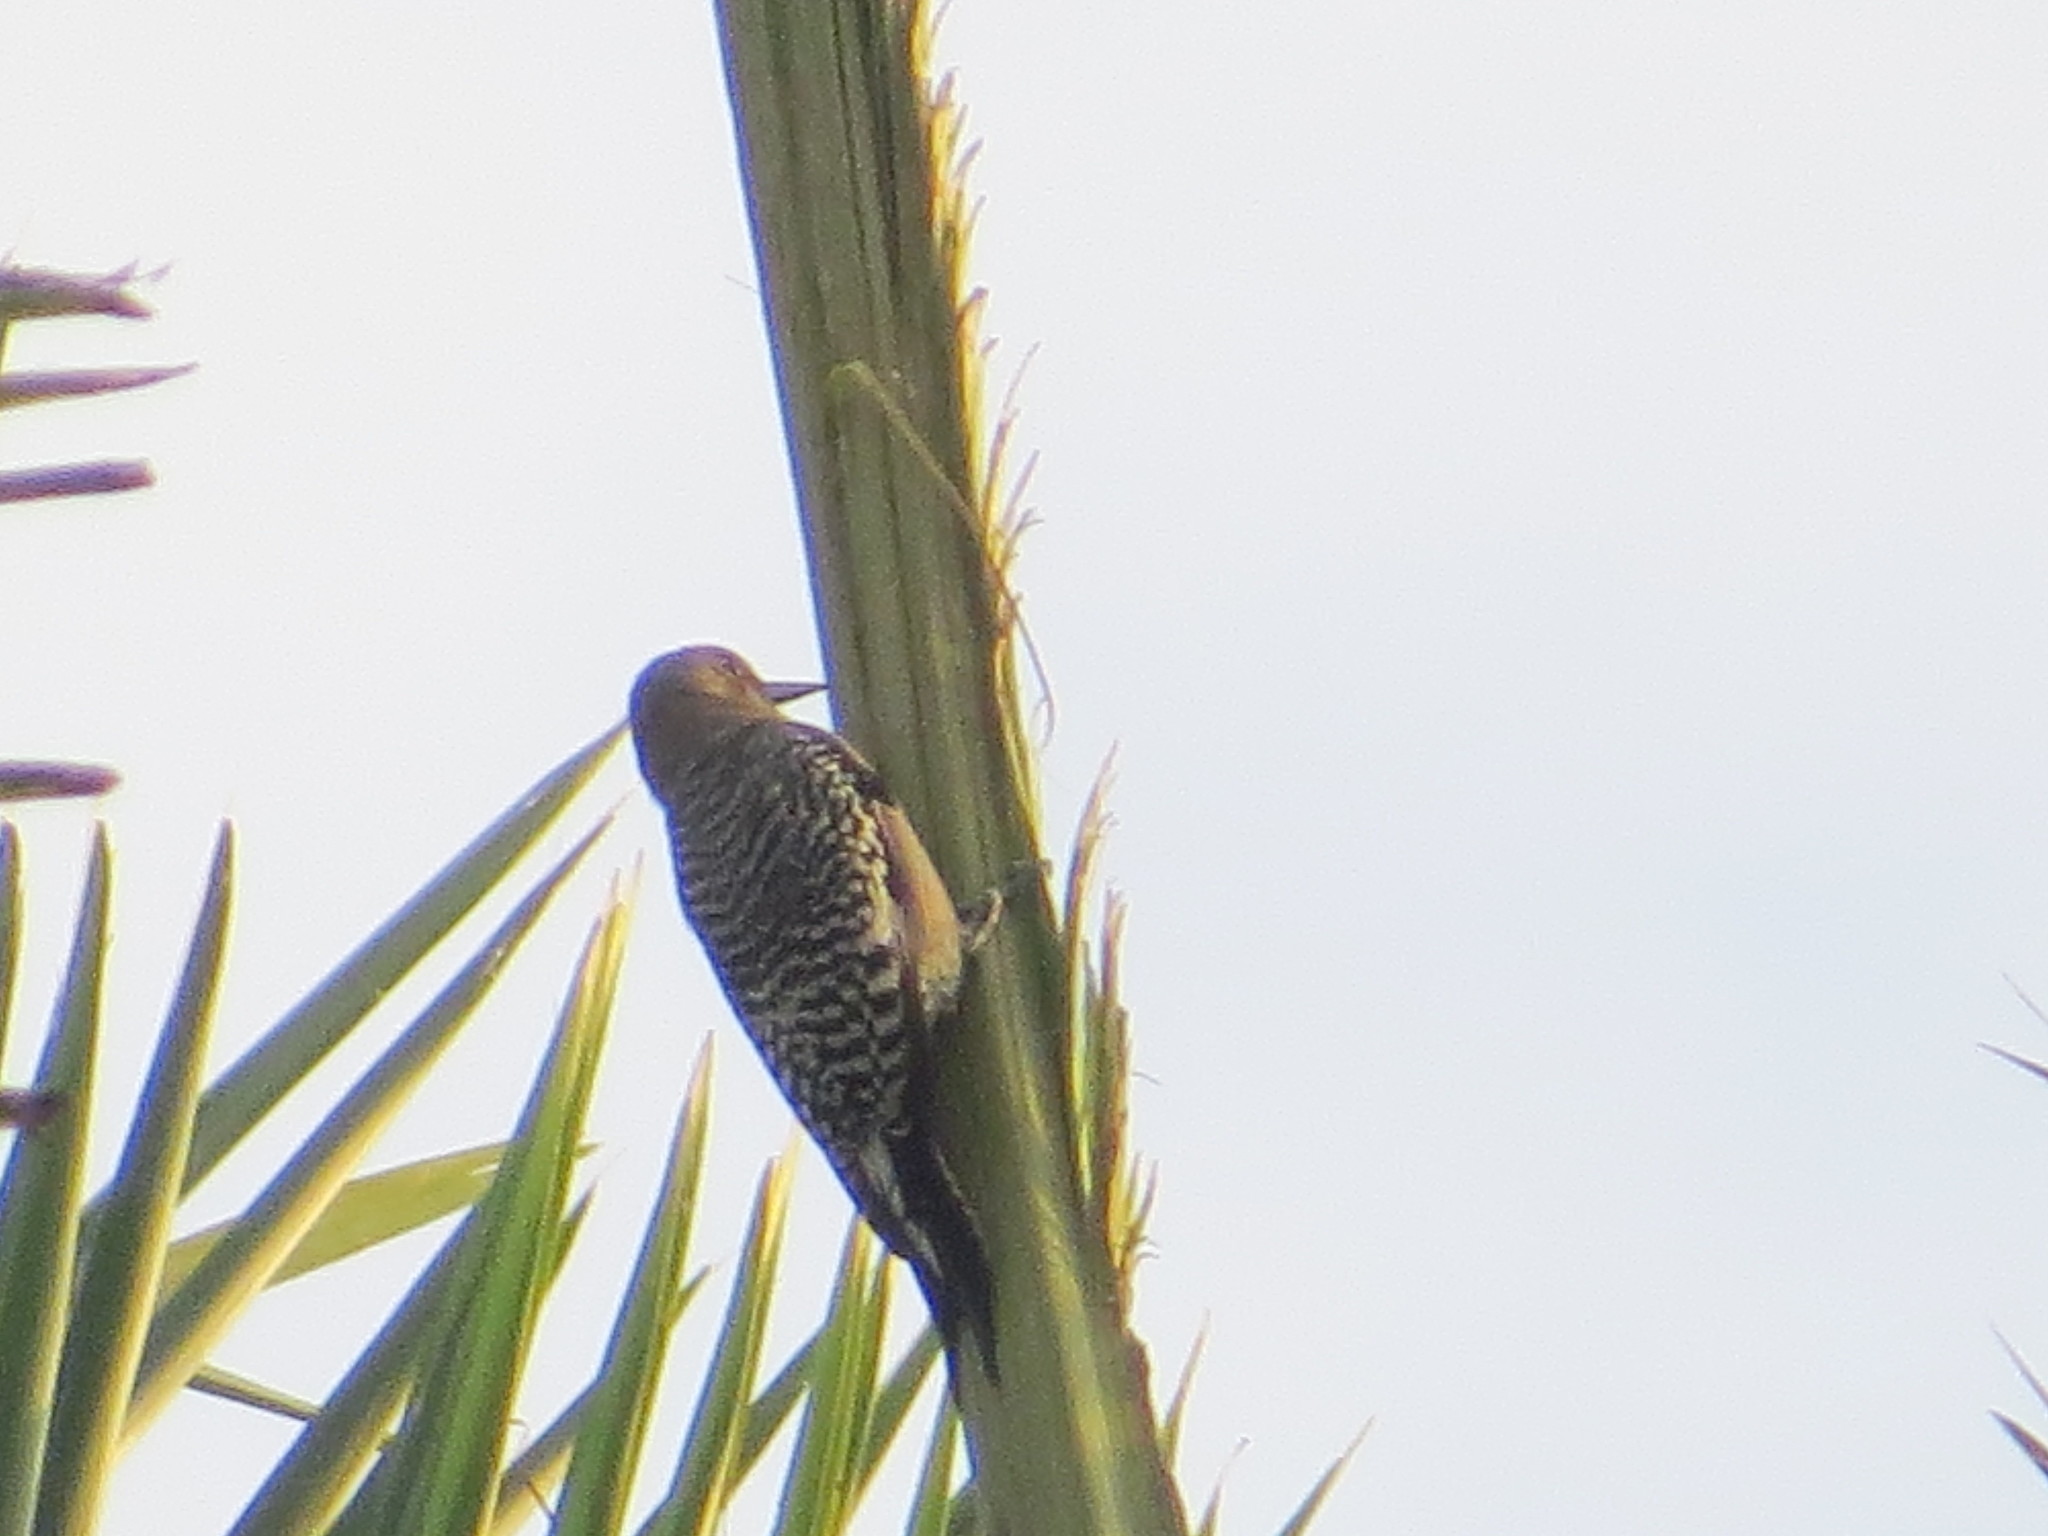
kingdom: Animalia
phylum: Chordata
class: Aves
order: Piciformes
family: Picidae
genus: Melanerpes
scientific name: Melanerpes chrysogenys
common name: Golden-cheeked woodpecker
